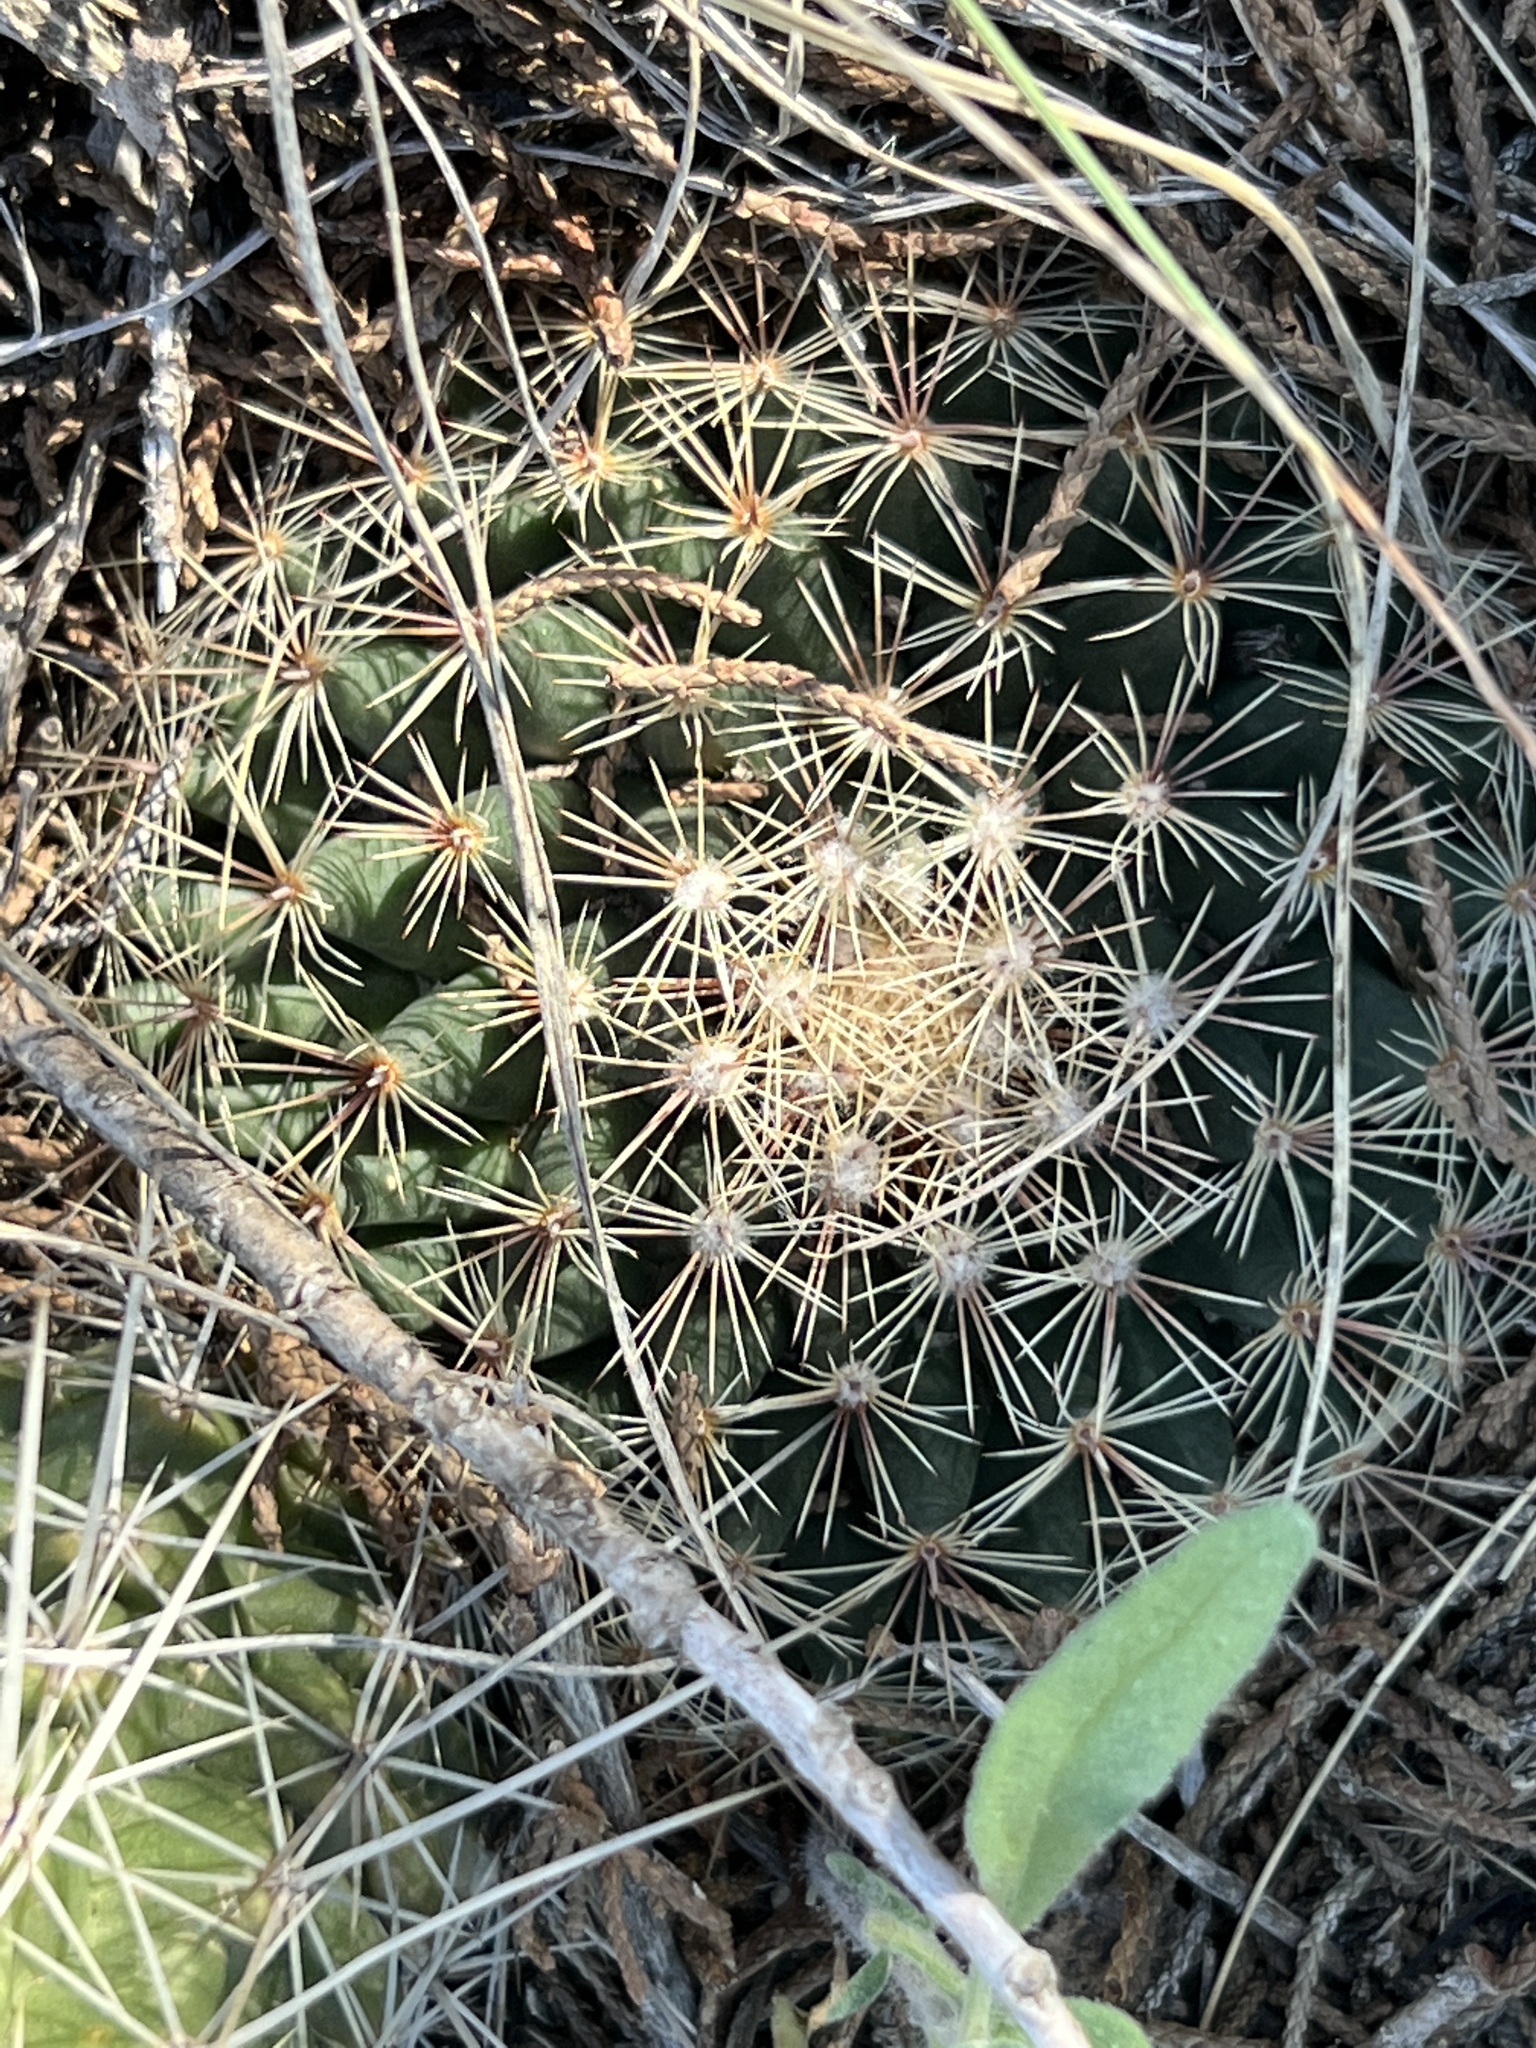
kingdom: Plantae
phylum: Tracheophyta
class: Magnoliopsida
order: Caryophyllales
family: Cactaceae
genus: Mammillaria
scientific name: Mammillaria heyderi
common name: Little nipple cactus
